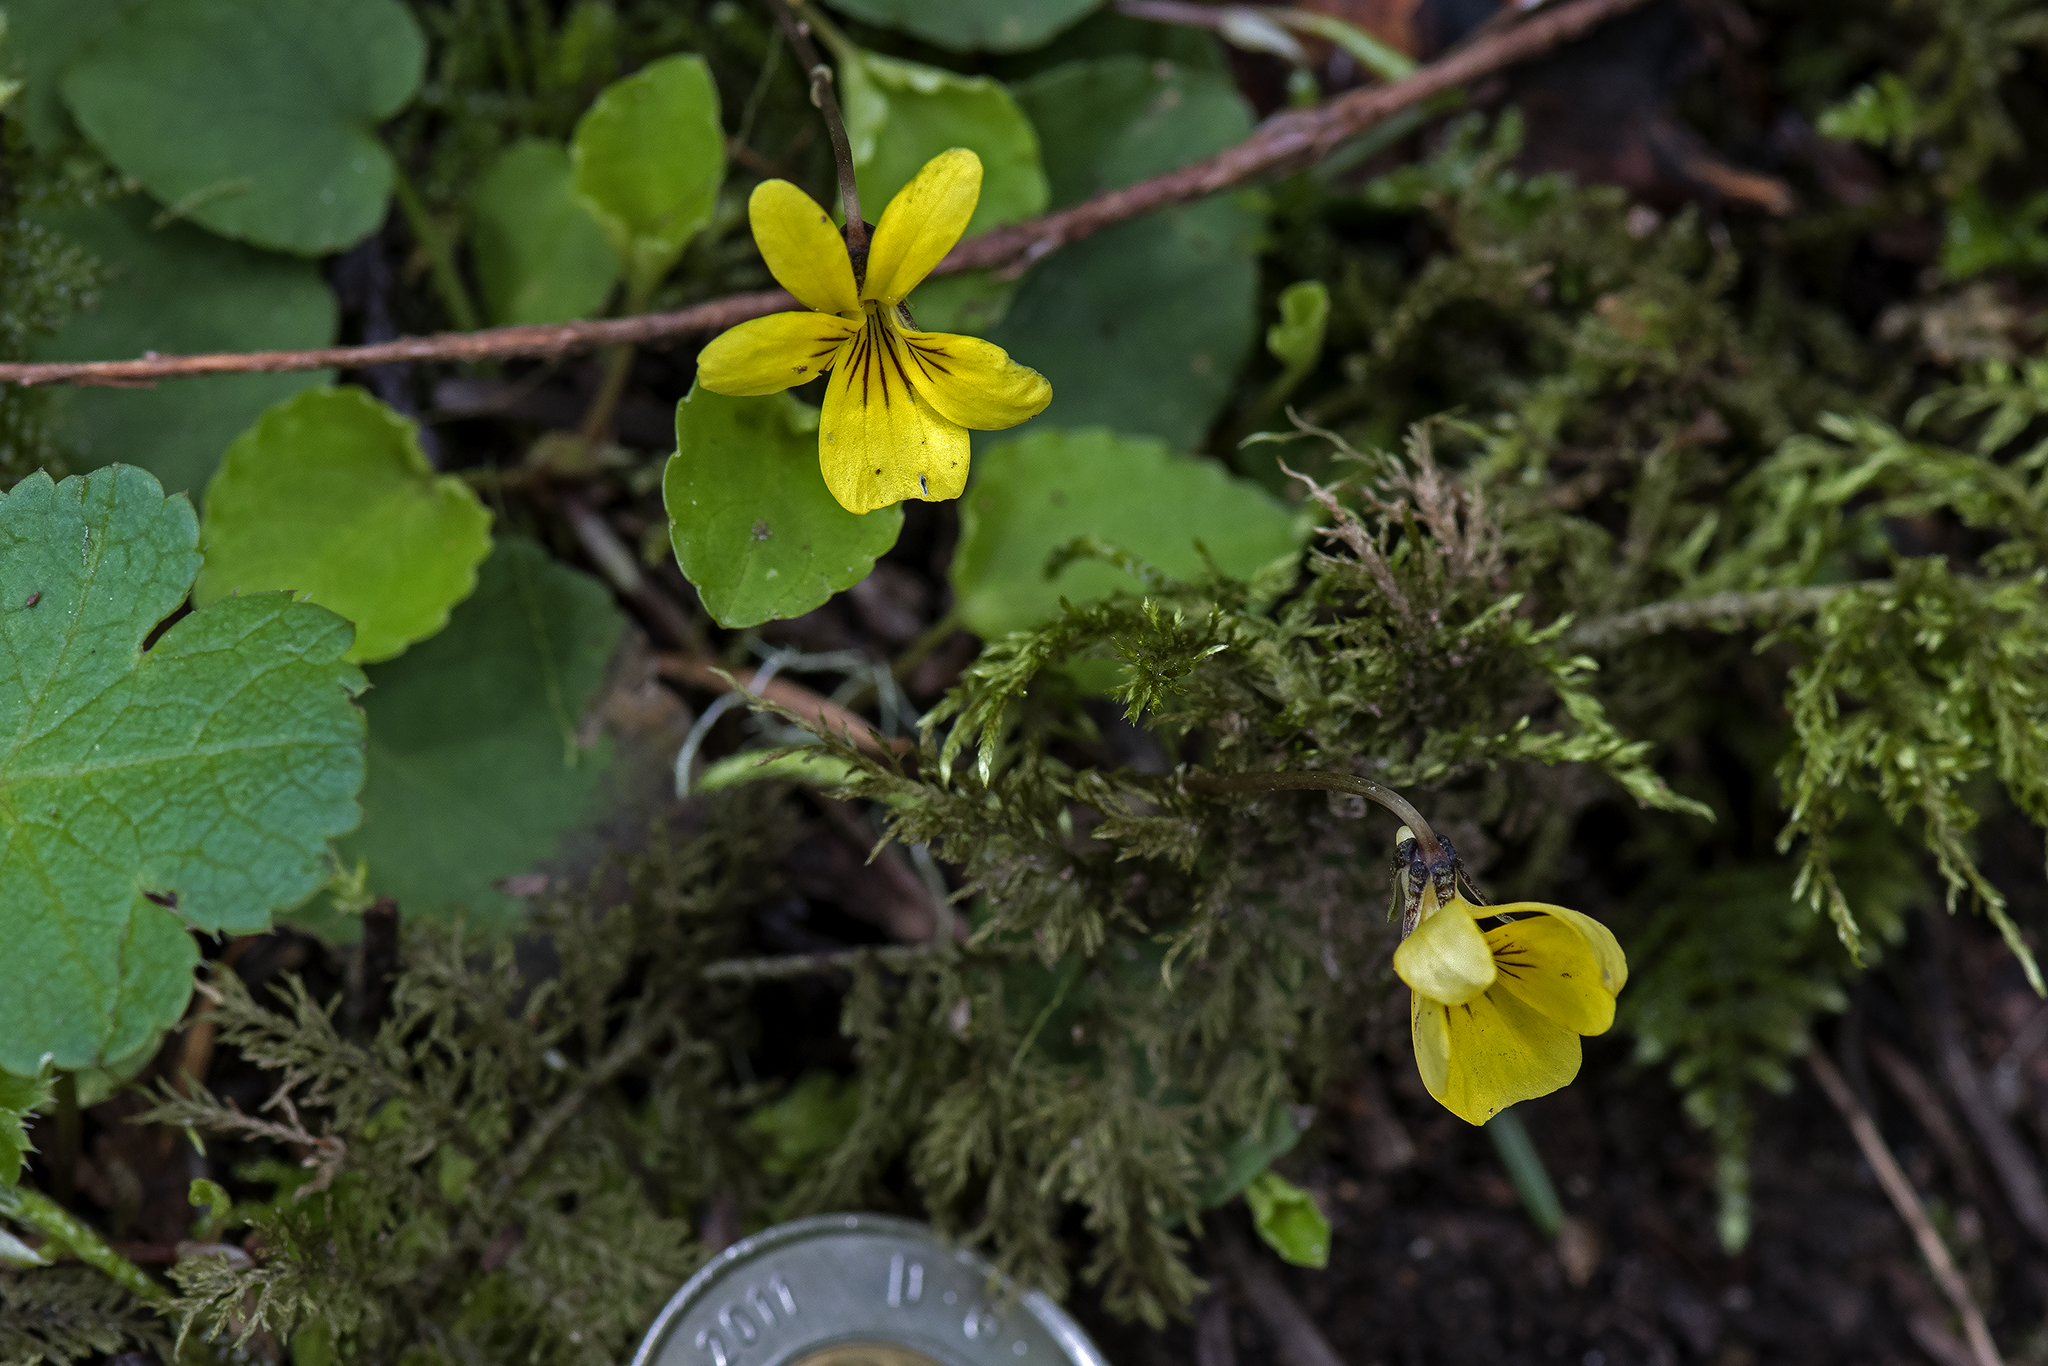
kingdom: Plantae
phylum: Tracheophyta
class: Magnoliopsida
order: Malpighiales
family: Violaceae
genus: Viola
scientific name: Viola glabella
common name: Stream violet
